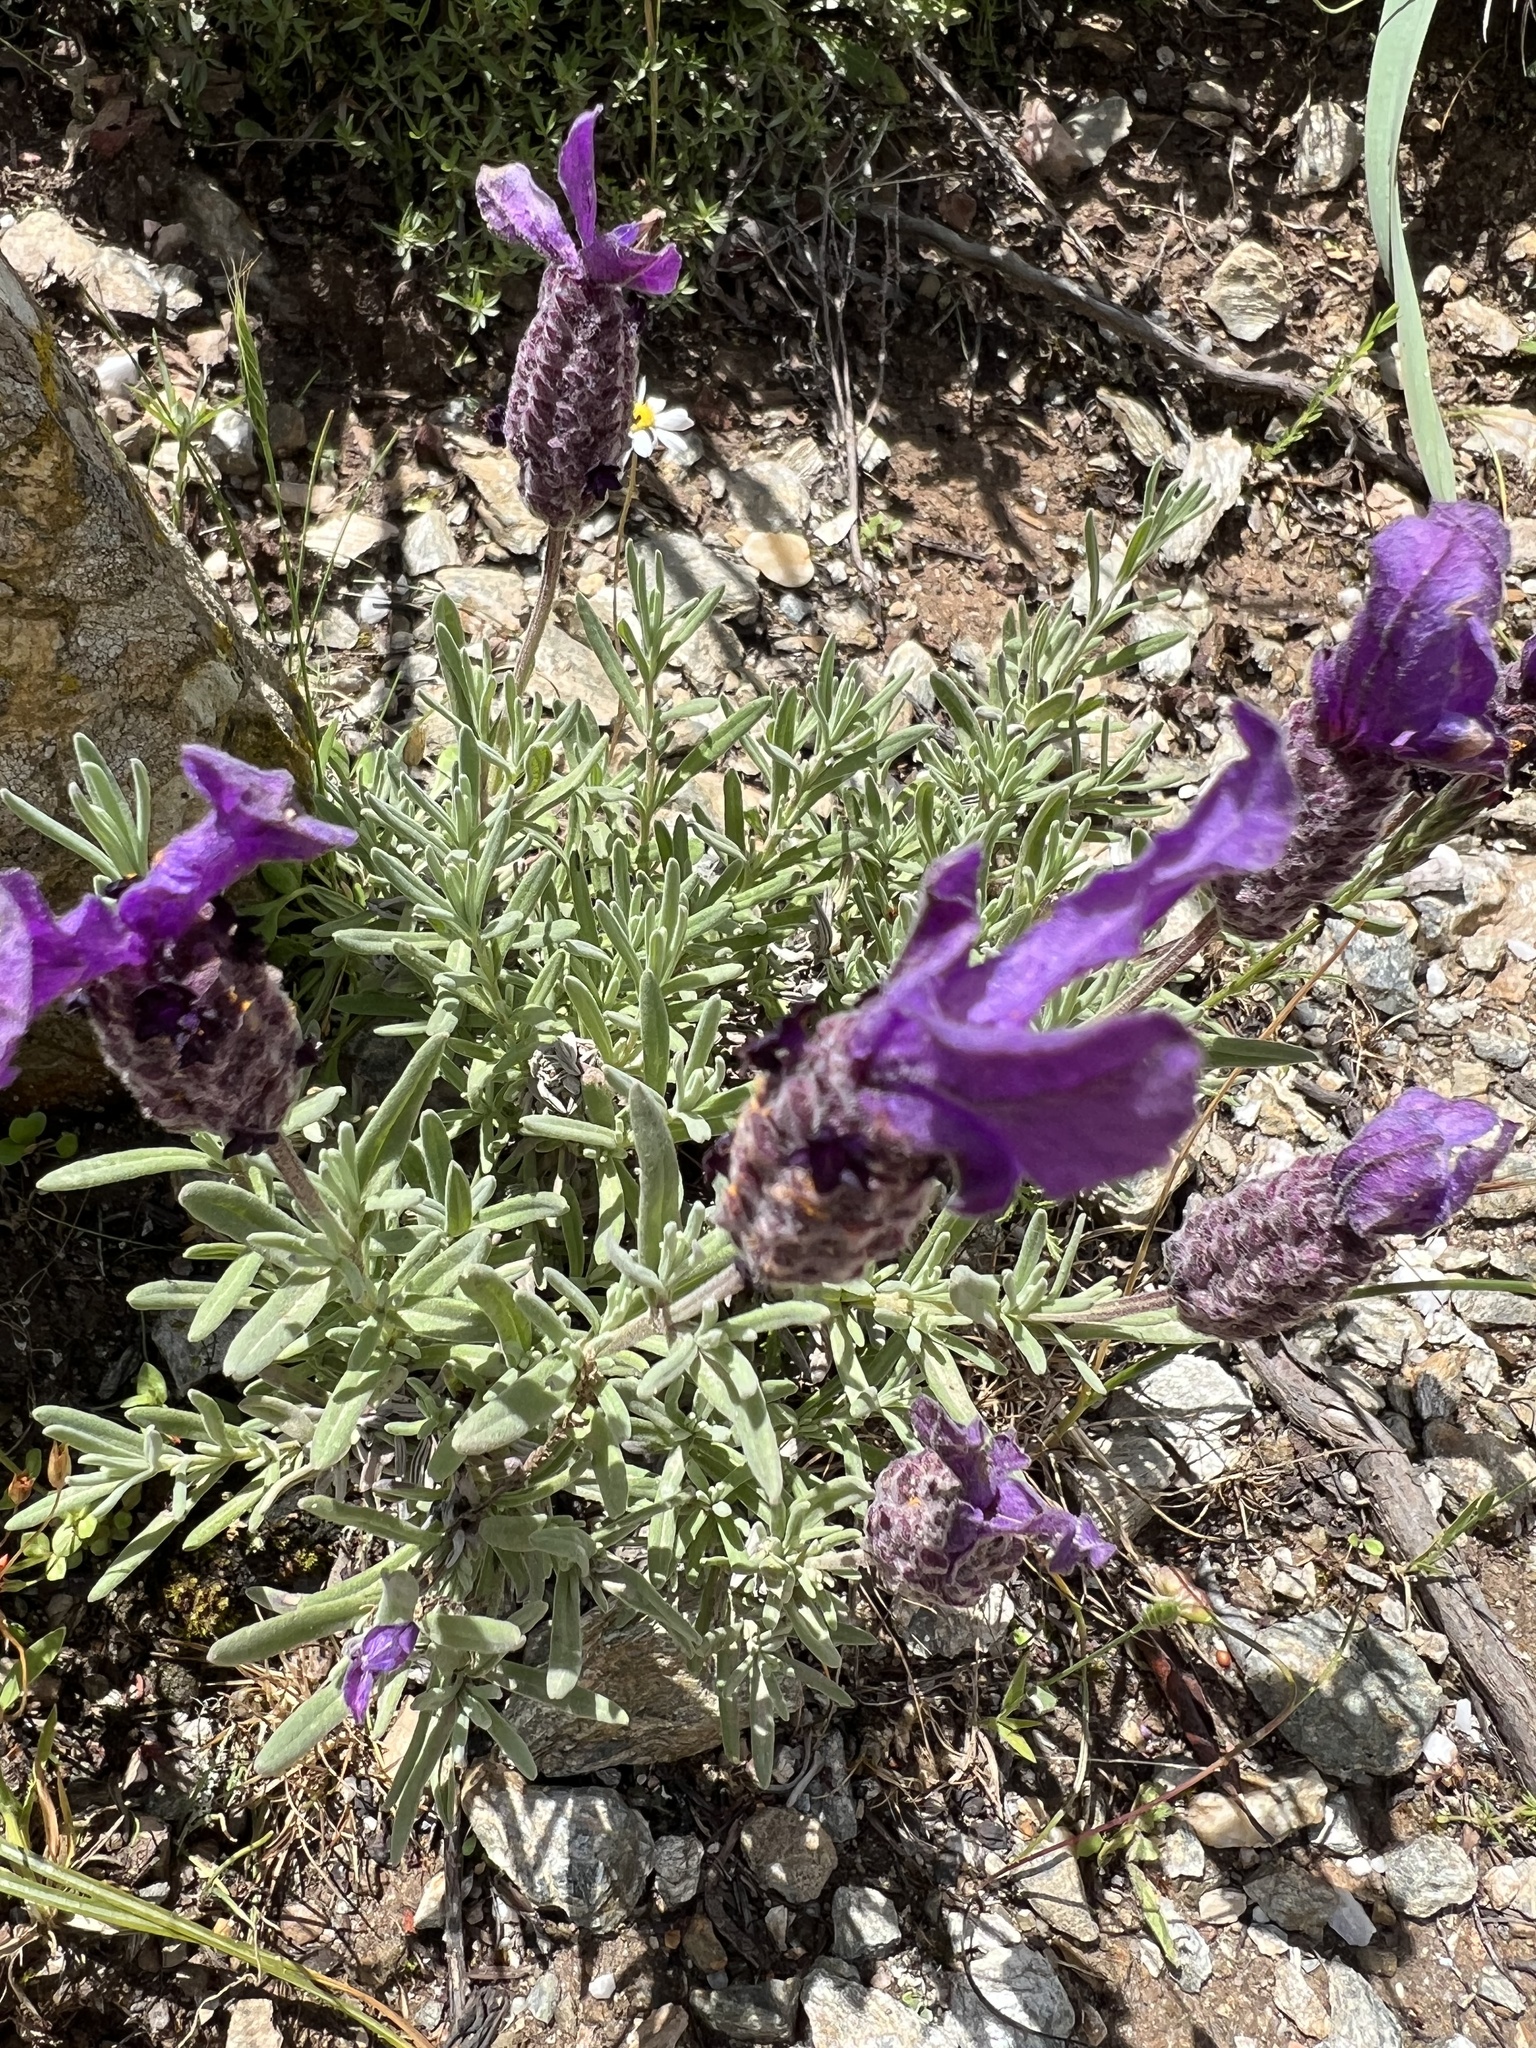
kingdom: Plantae
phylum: Tracheophyta
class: Magnoliopsida
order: Lamiales
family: Lamiaceae
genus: Lavandula
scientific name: Lavandula stoechas
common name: French lavender
